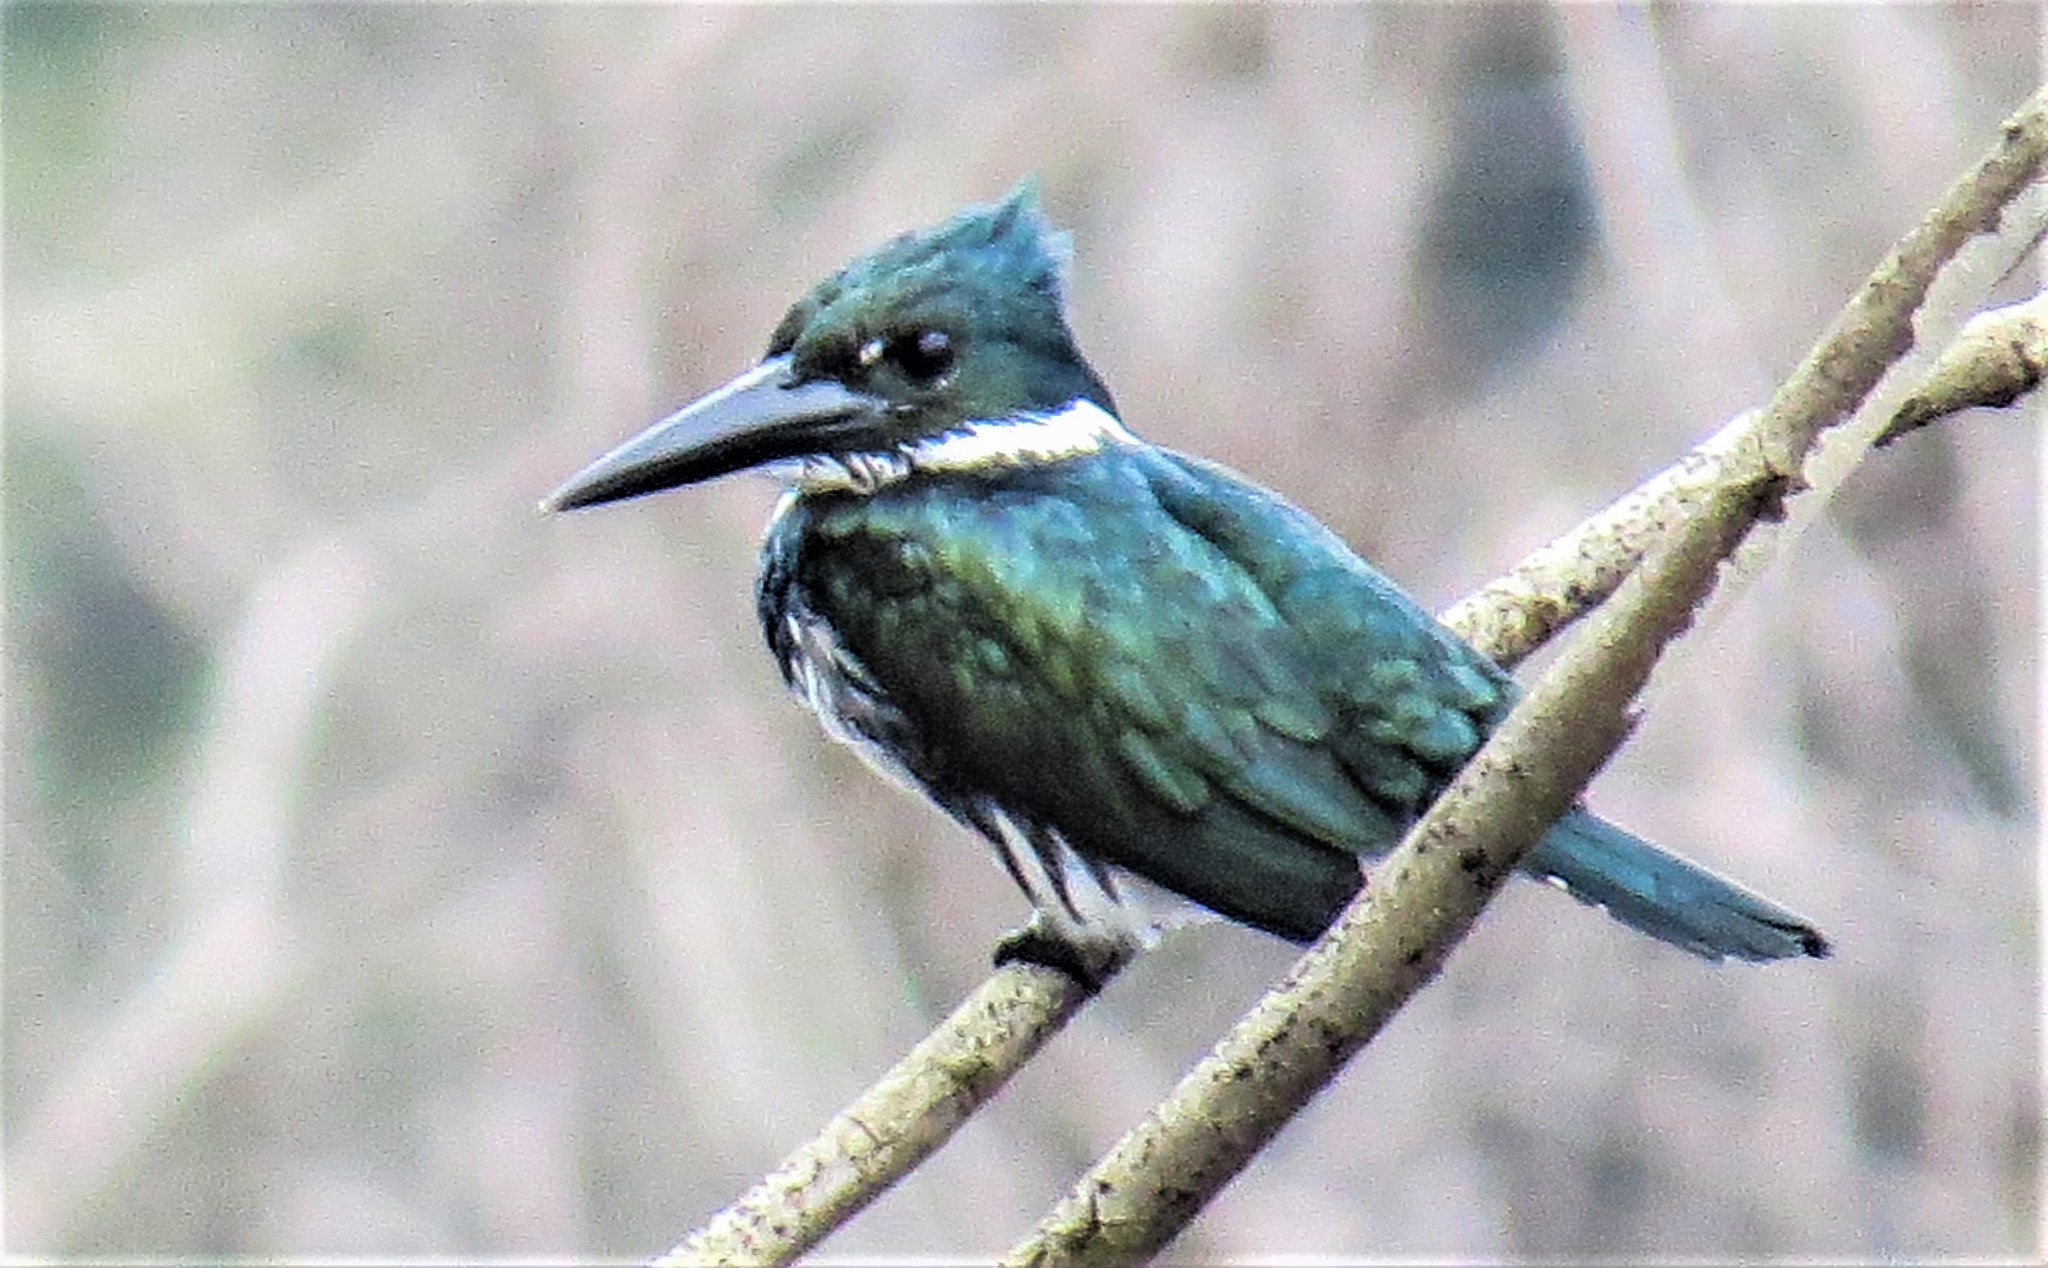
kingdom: Animalia
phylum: Chordata
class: Aves
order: Coraciiformes
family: Alcedinidae
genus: Chloroceryle
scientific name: Chloroceryle amazona
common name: Amazon kingfisher
